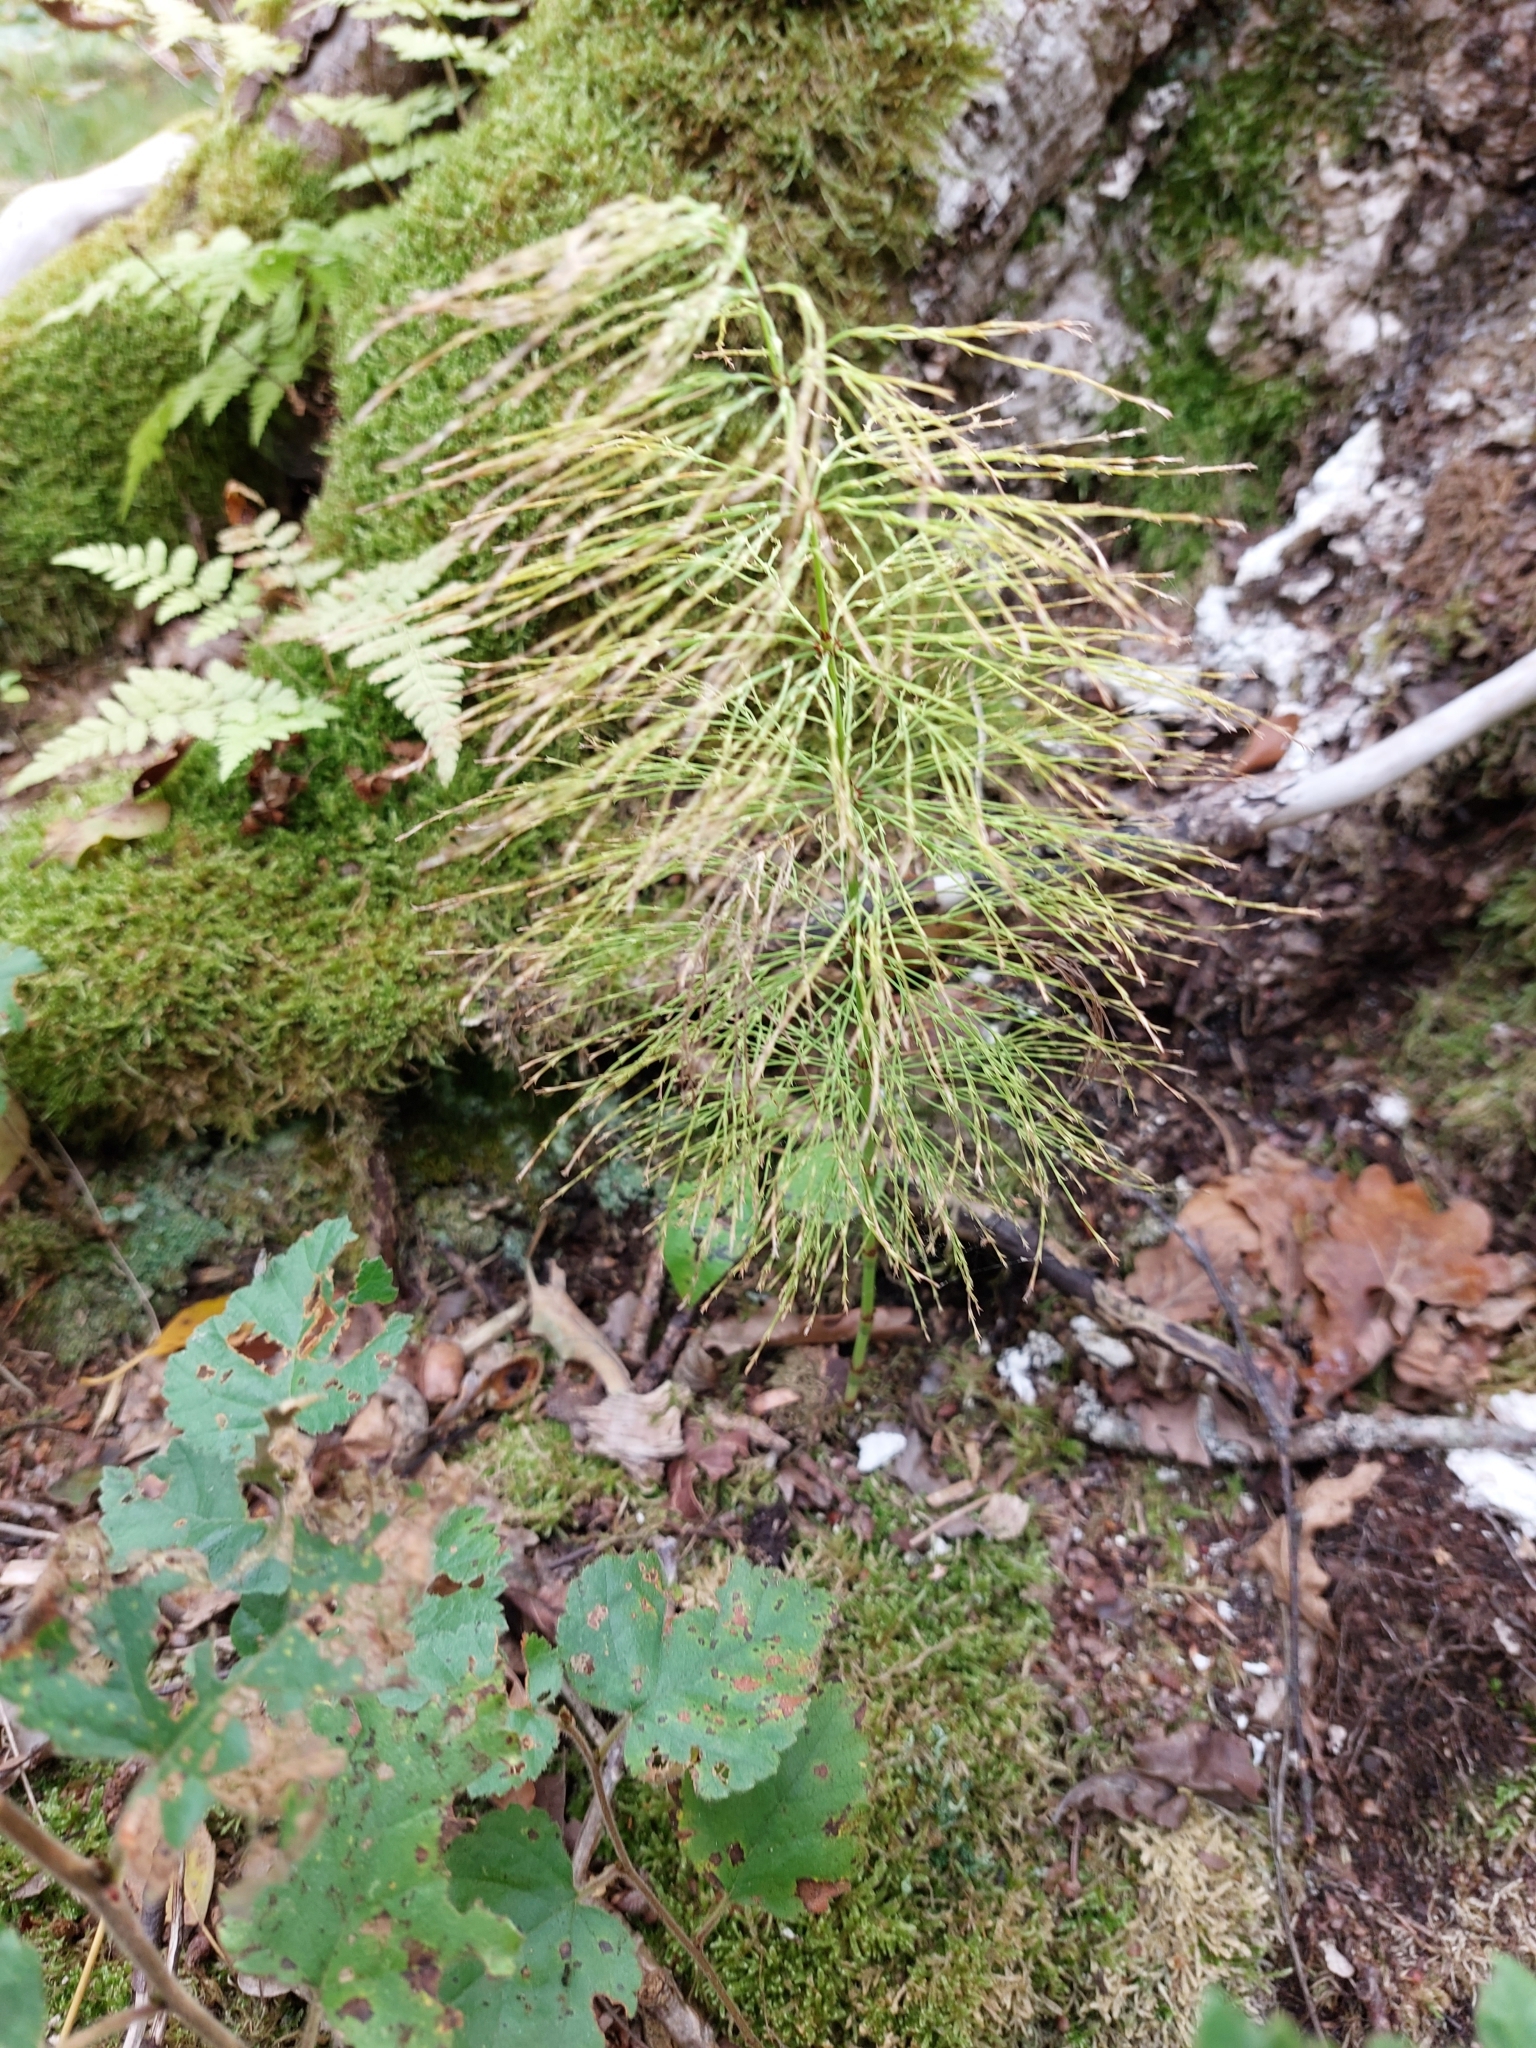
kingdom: Plantae
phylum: Tracheophyta
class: Polypodiopsida
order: Equisetales
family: Equisetaceae
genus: Equisetum
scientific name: Equisetum sylvaticum
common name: Wood horsetail
